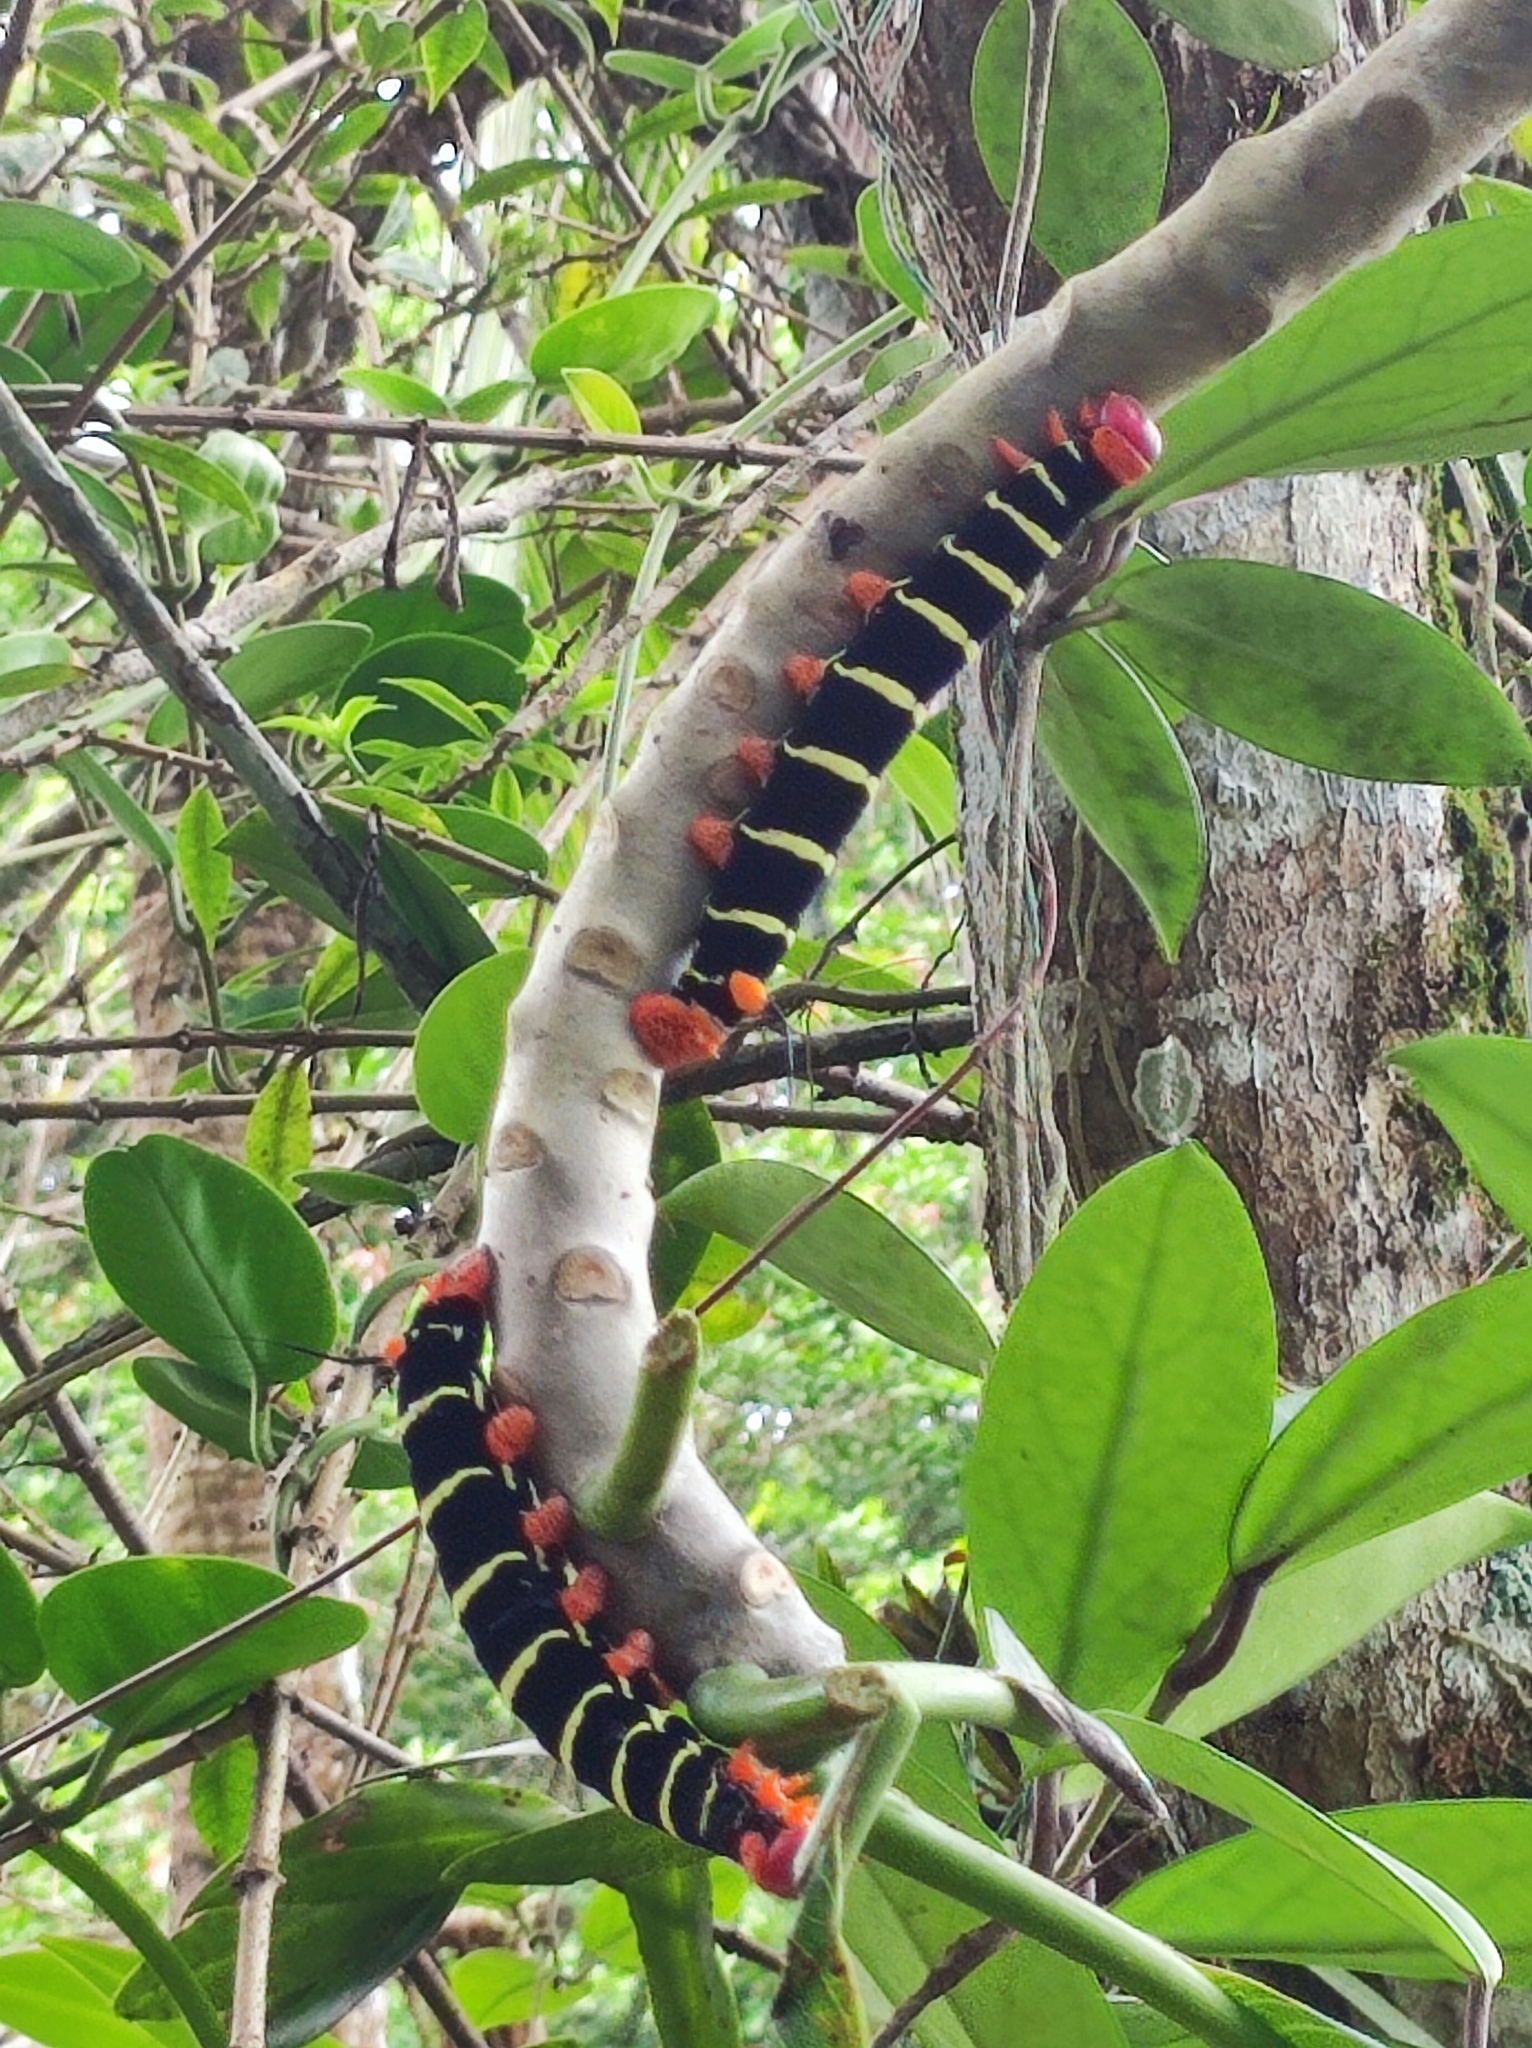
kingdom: Animalia
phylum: Arthropoda
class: Insecta
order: Lepidoptera
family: Sphingidae
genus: Pseudosphinx
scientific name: Pseudosphinx tetrio
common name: Tetrio sphinx
